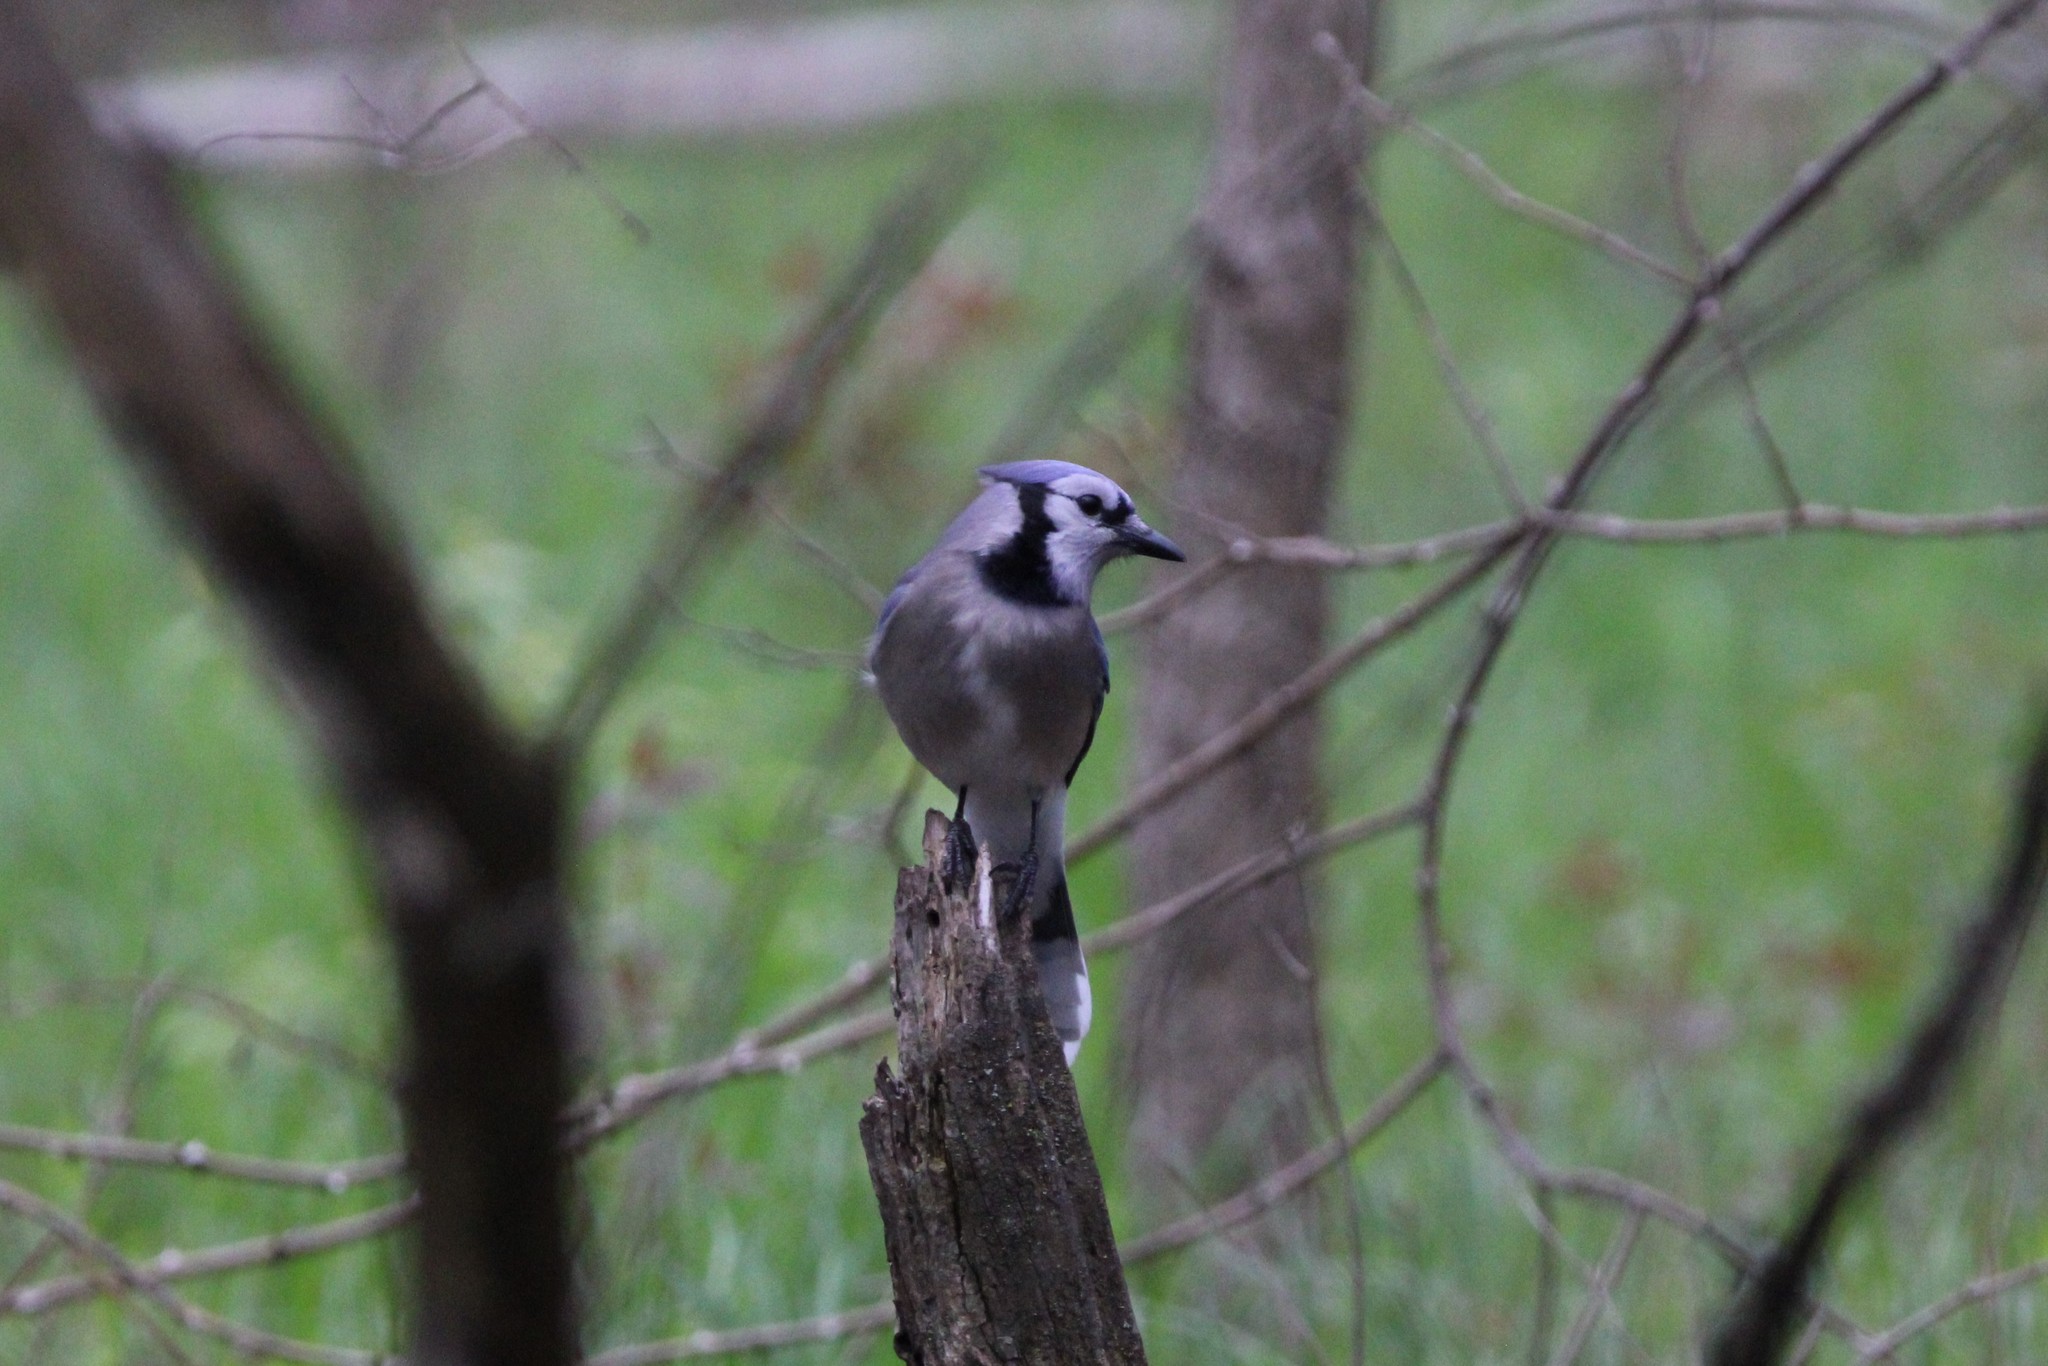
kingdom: Animalia
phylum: Chordata
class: Aves
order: Passeriformes
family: Corvidae
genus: Cyanocitta
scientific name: Cyanocitta cristata
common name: Blue jay
